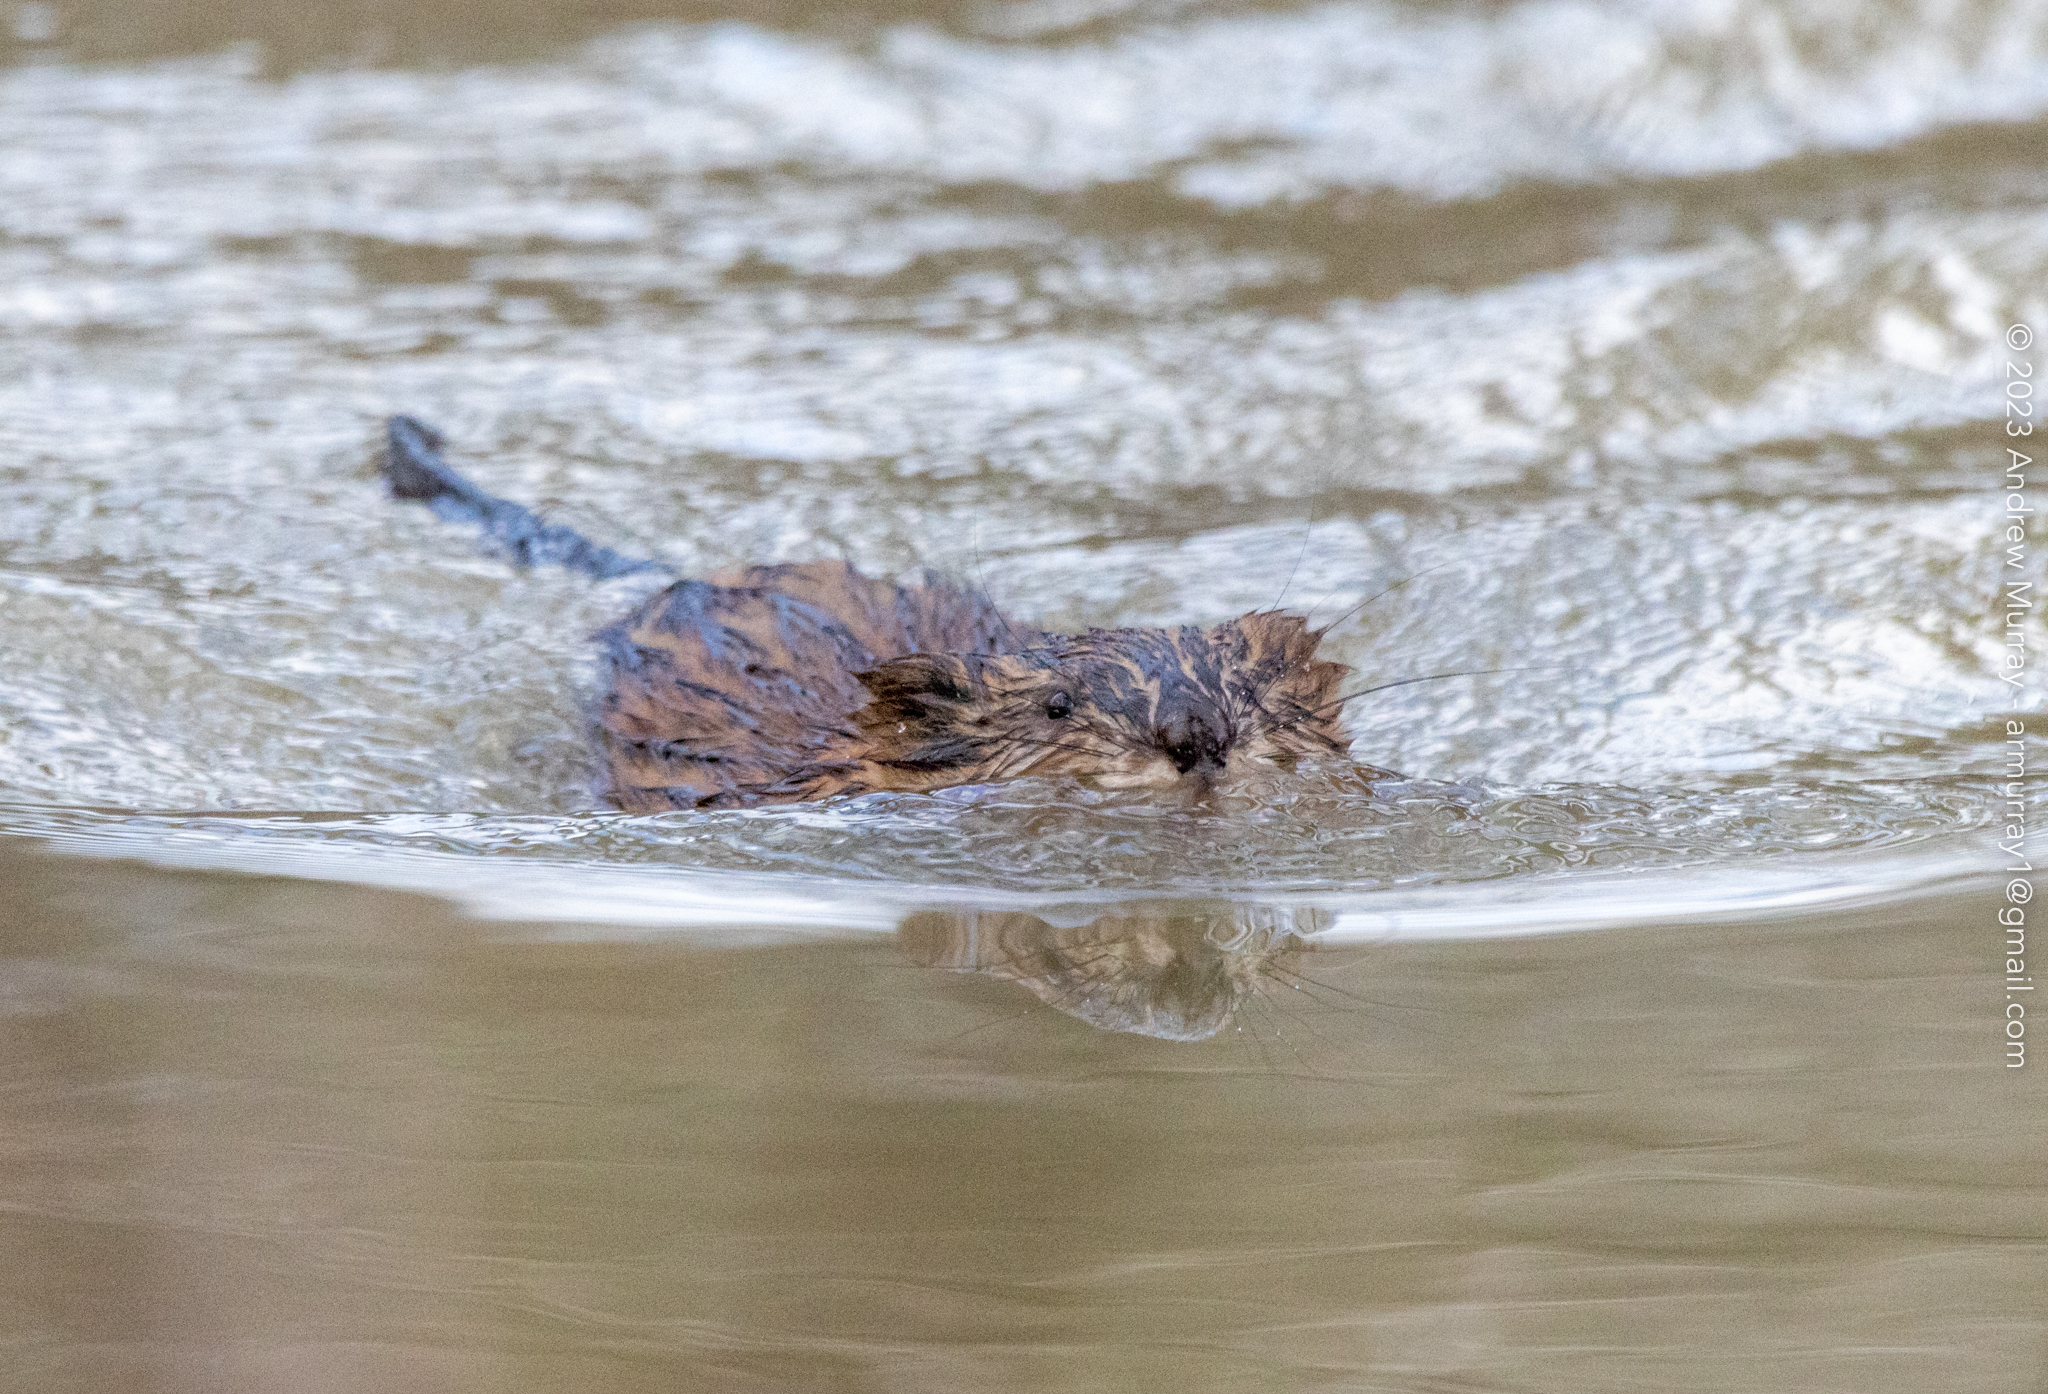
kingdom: Animalia
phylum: Chordata
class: Mammalia
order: Rodentia
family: Cricetidae
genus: Ondatra
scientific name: Ondatra zibethicus
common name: Muskrat
